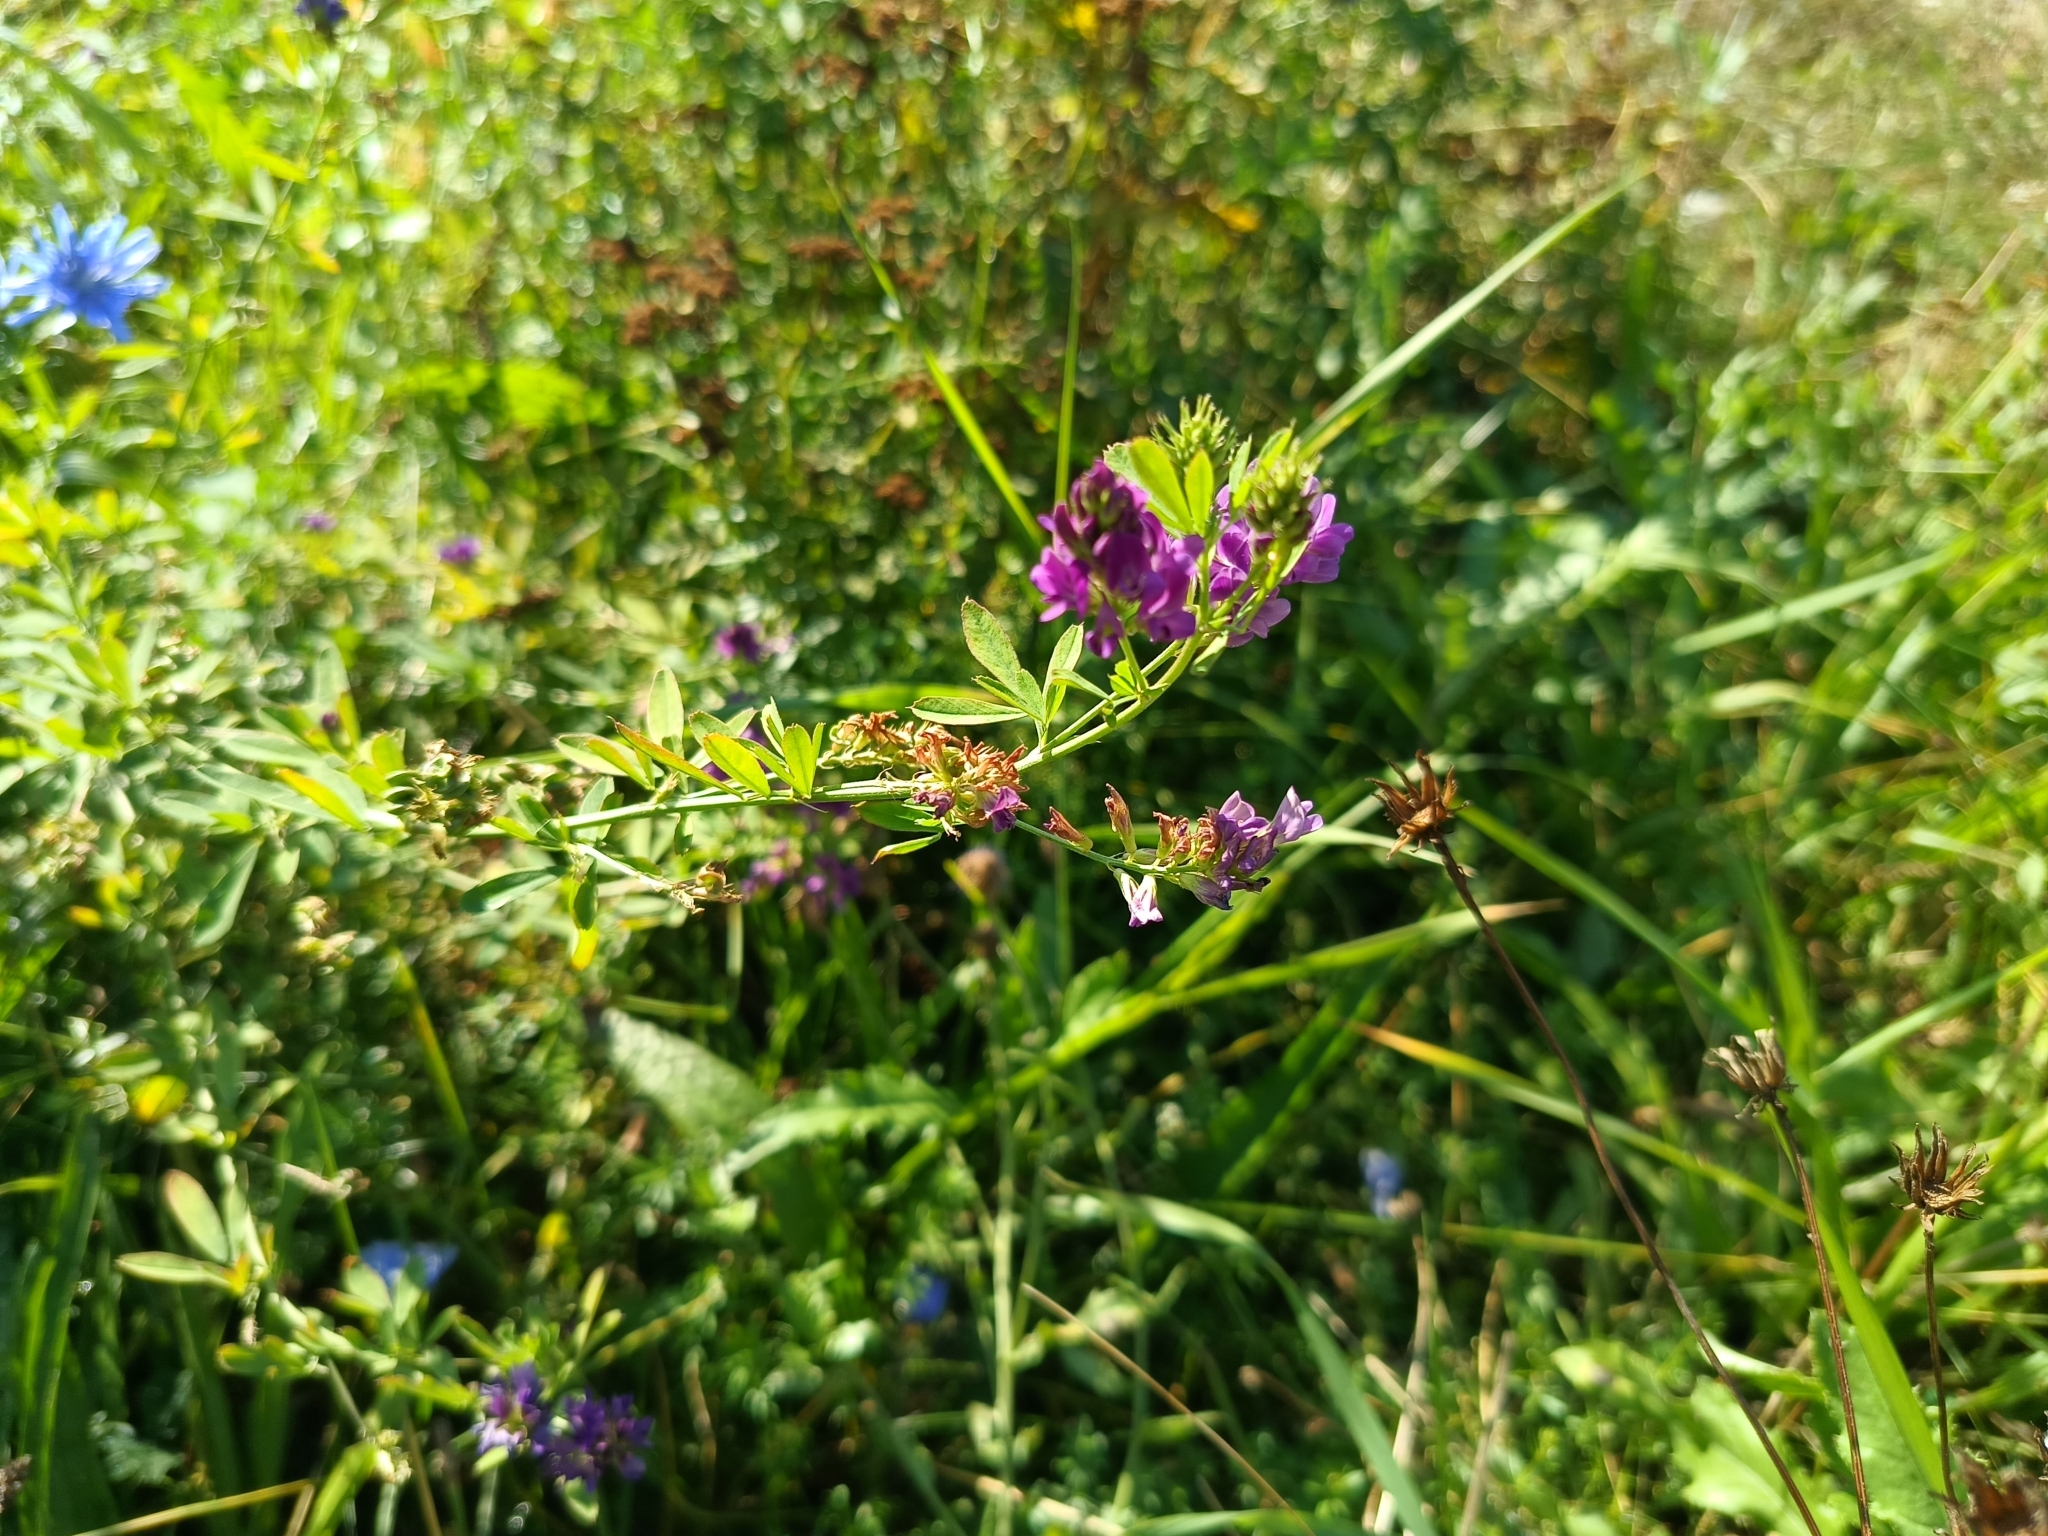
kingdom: Plantae
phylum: Tracheophyta
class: Magnoliopsida
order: Fabales
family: Fabaceae
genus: Medicago
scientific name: Medicago sativa
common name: Alfalfa
